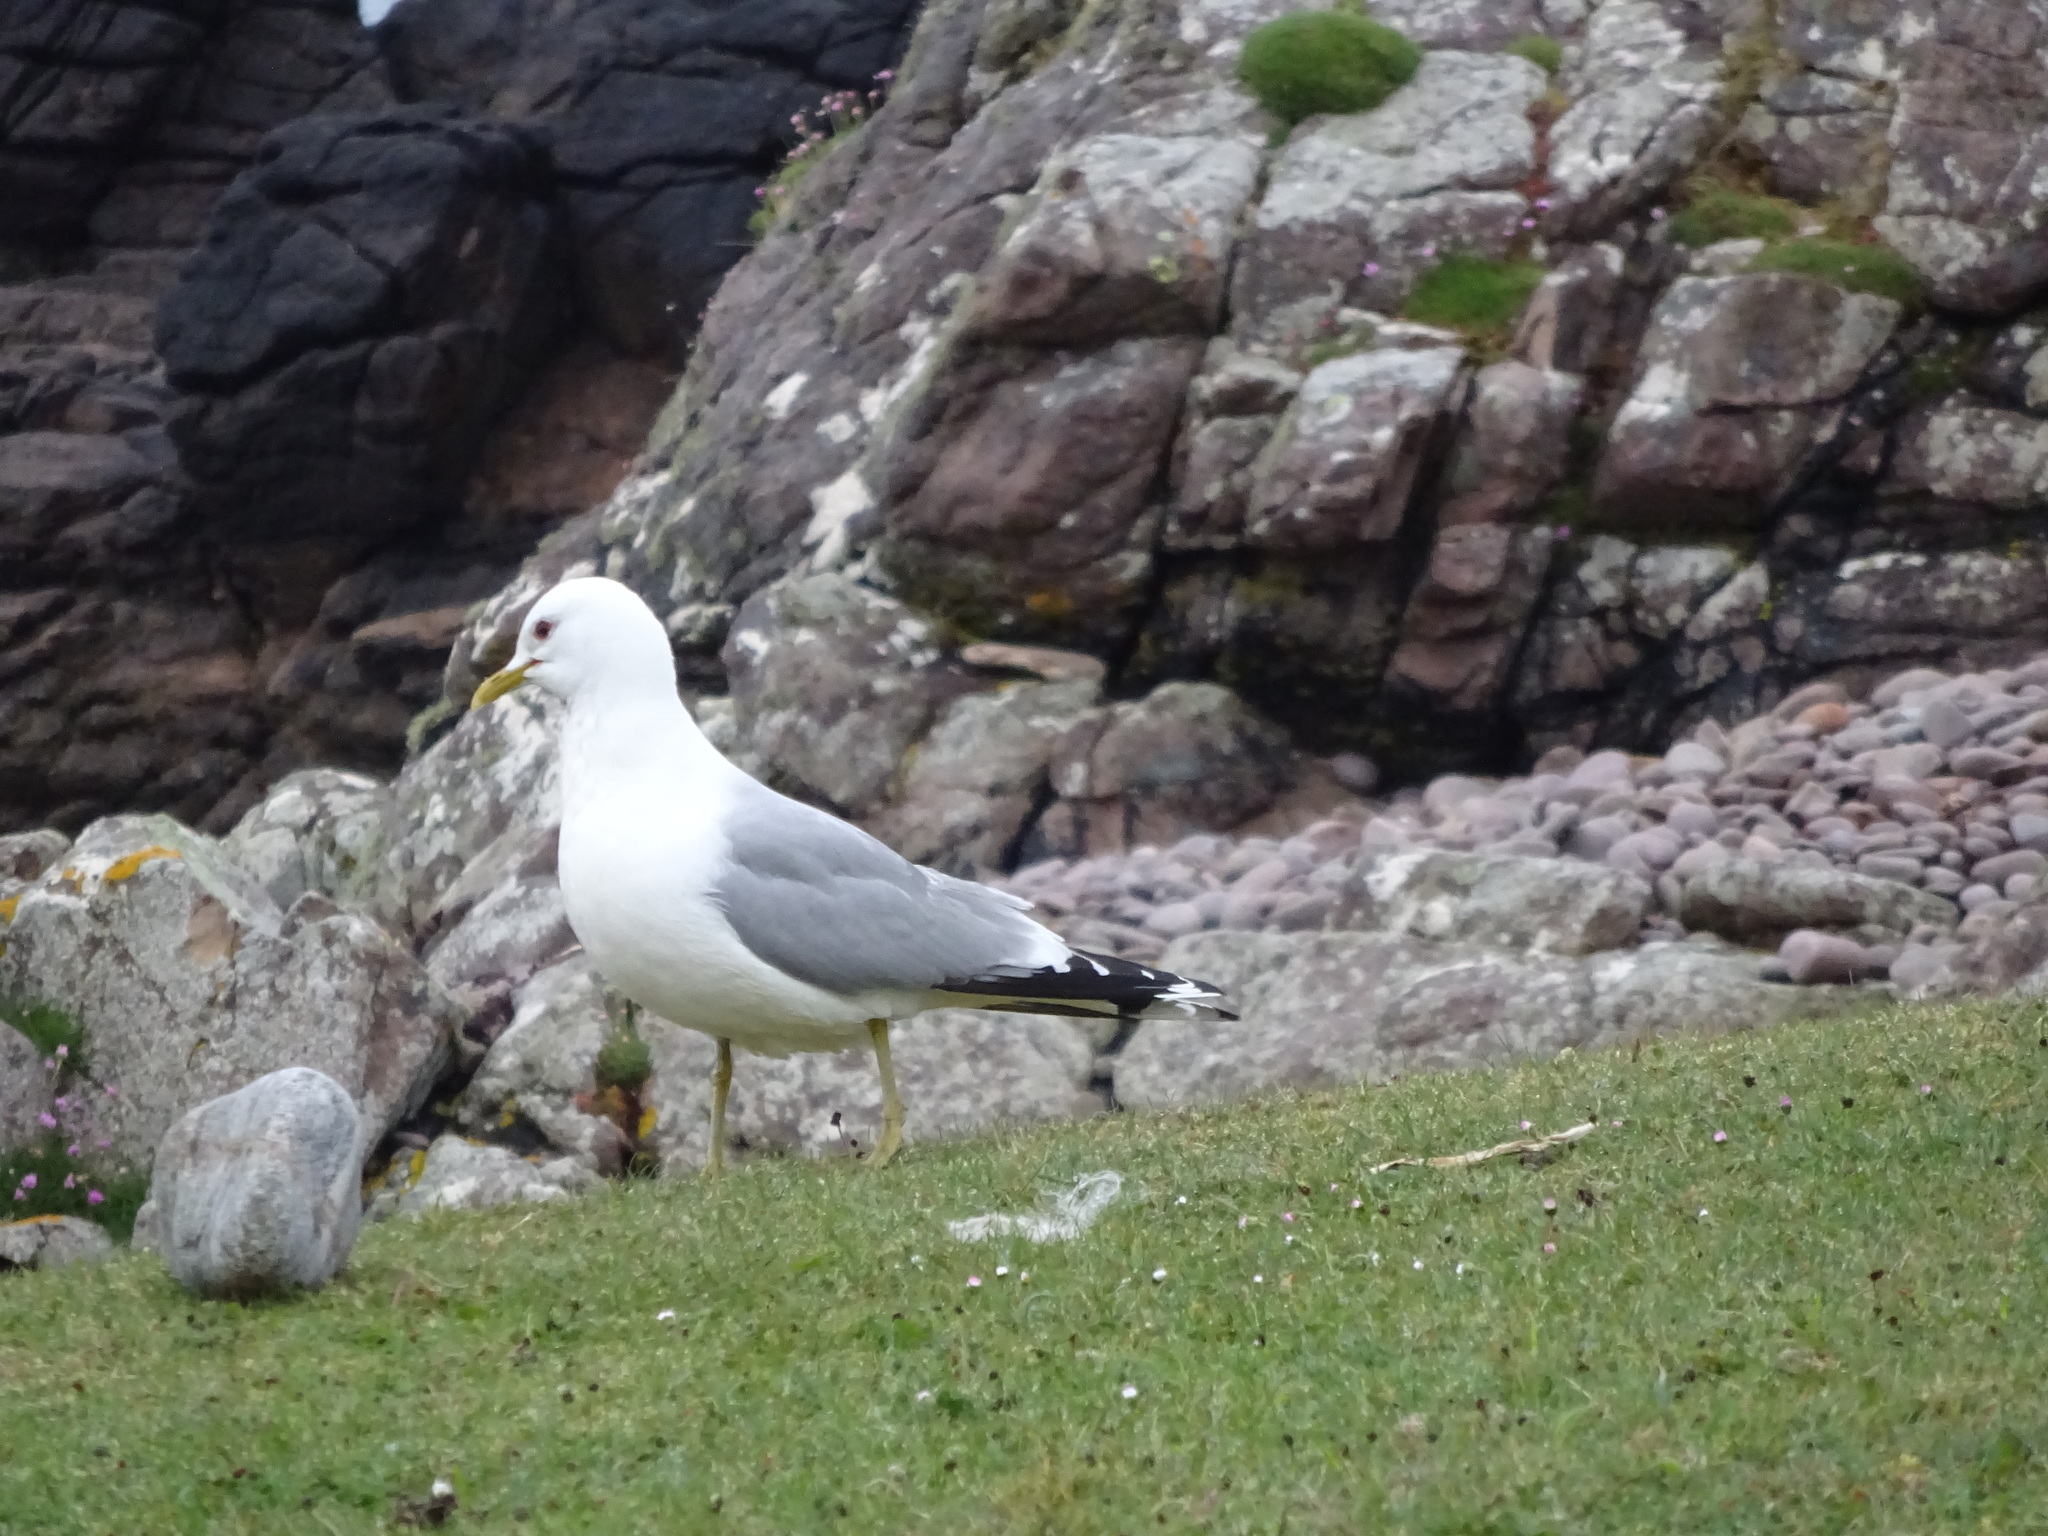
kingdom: Animalia
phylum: Chordata
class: Aves
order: Charadriiformes
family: Laridae
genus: Larus
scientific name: Larus canus
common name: Mew gull
